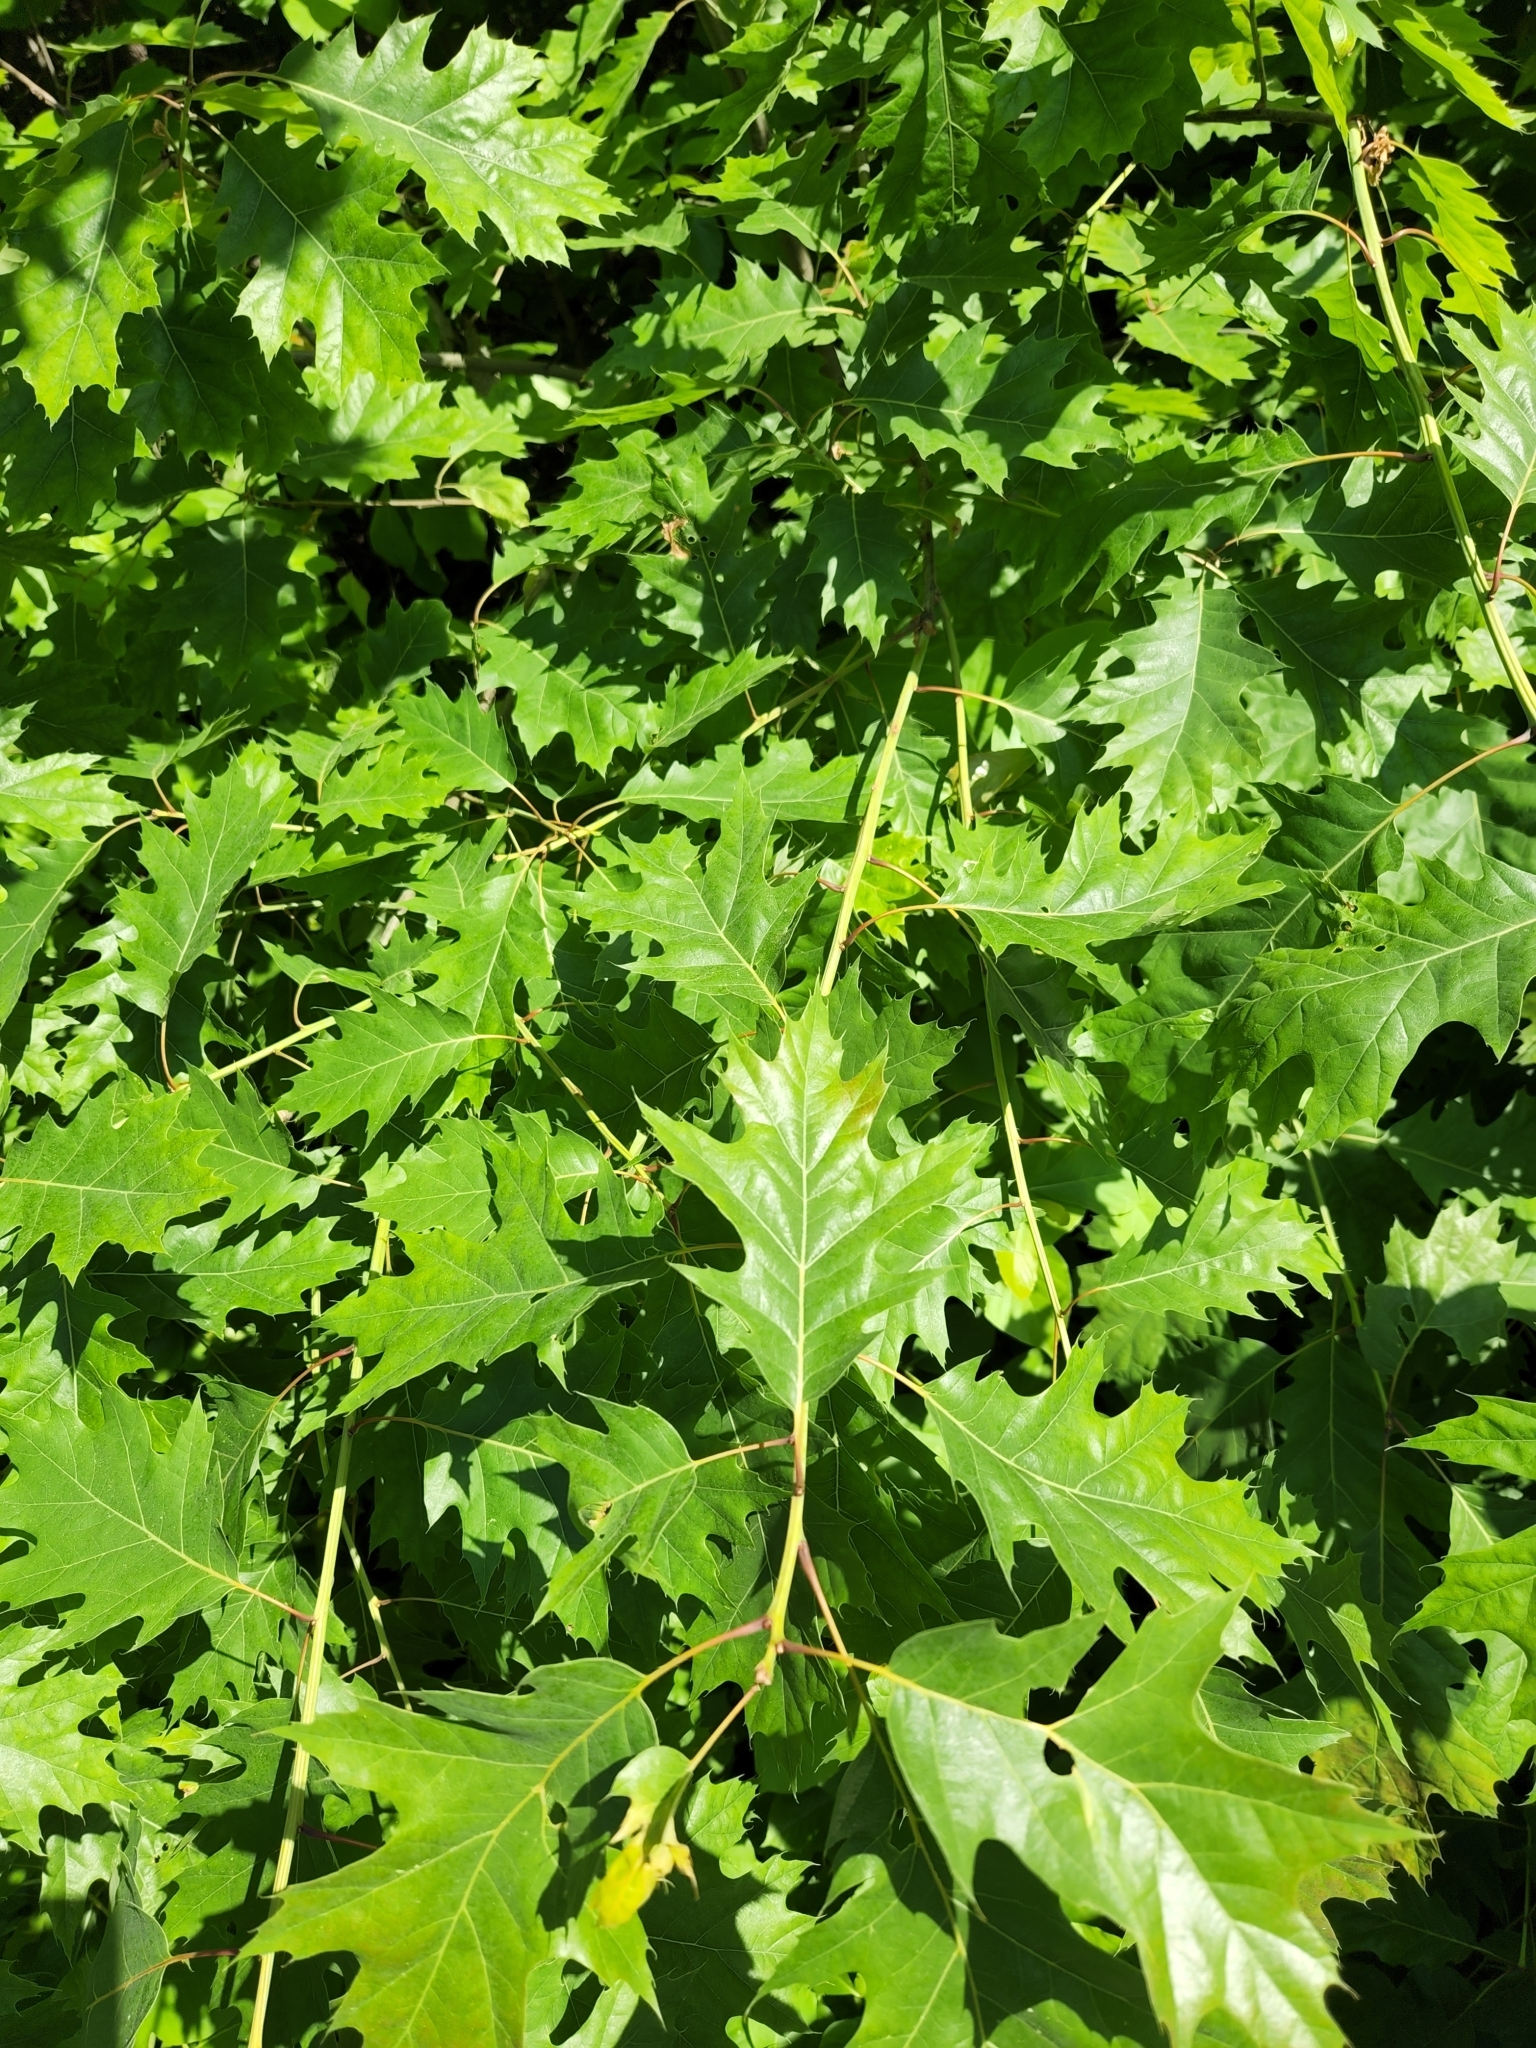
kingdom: Plantae
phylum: Tracheophyta
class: Magnoliopsida
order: Fagales
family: Fagaceae
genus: Quercus
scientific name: Quercus rubra
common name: Red oak
